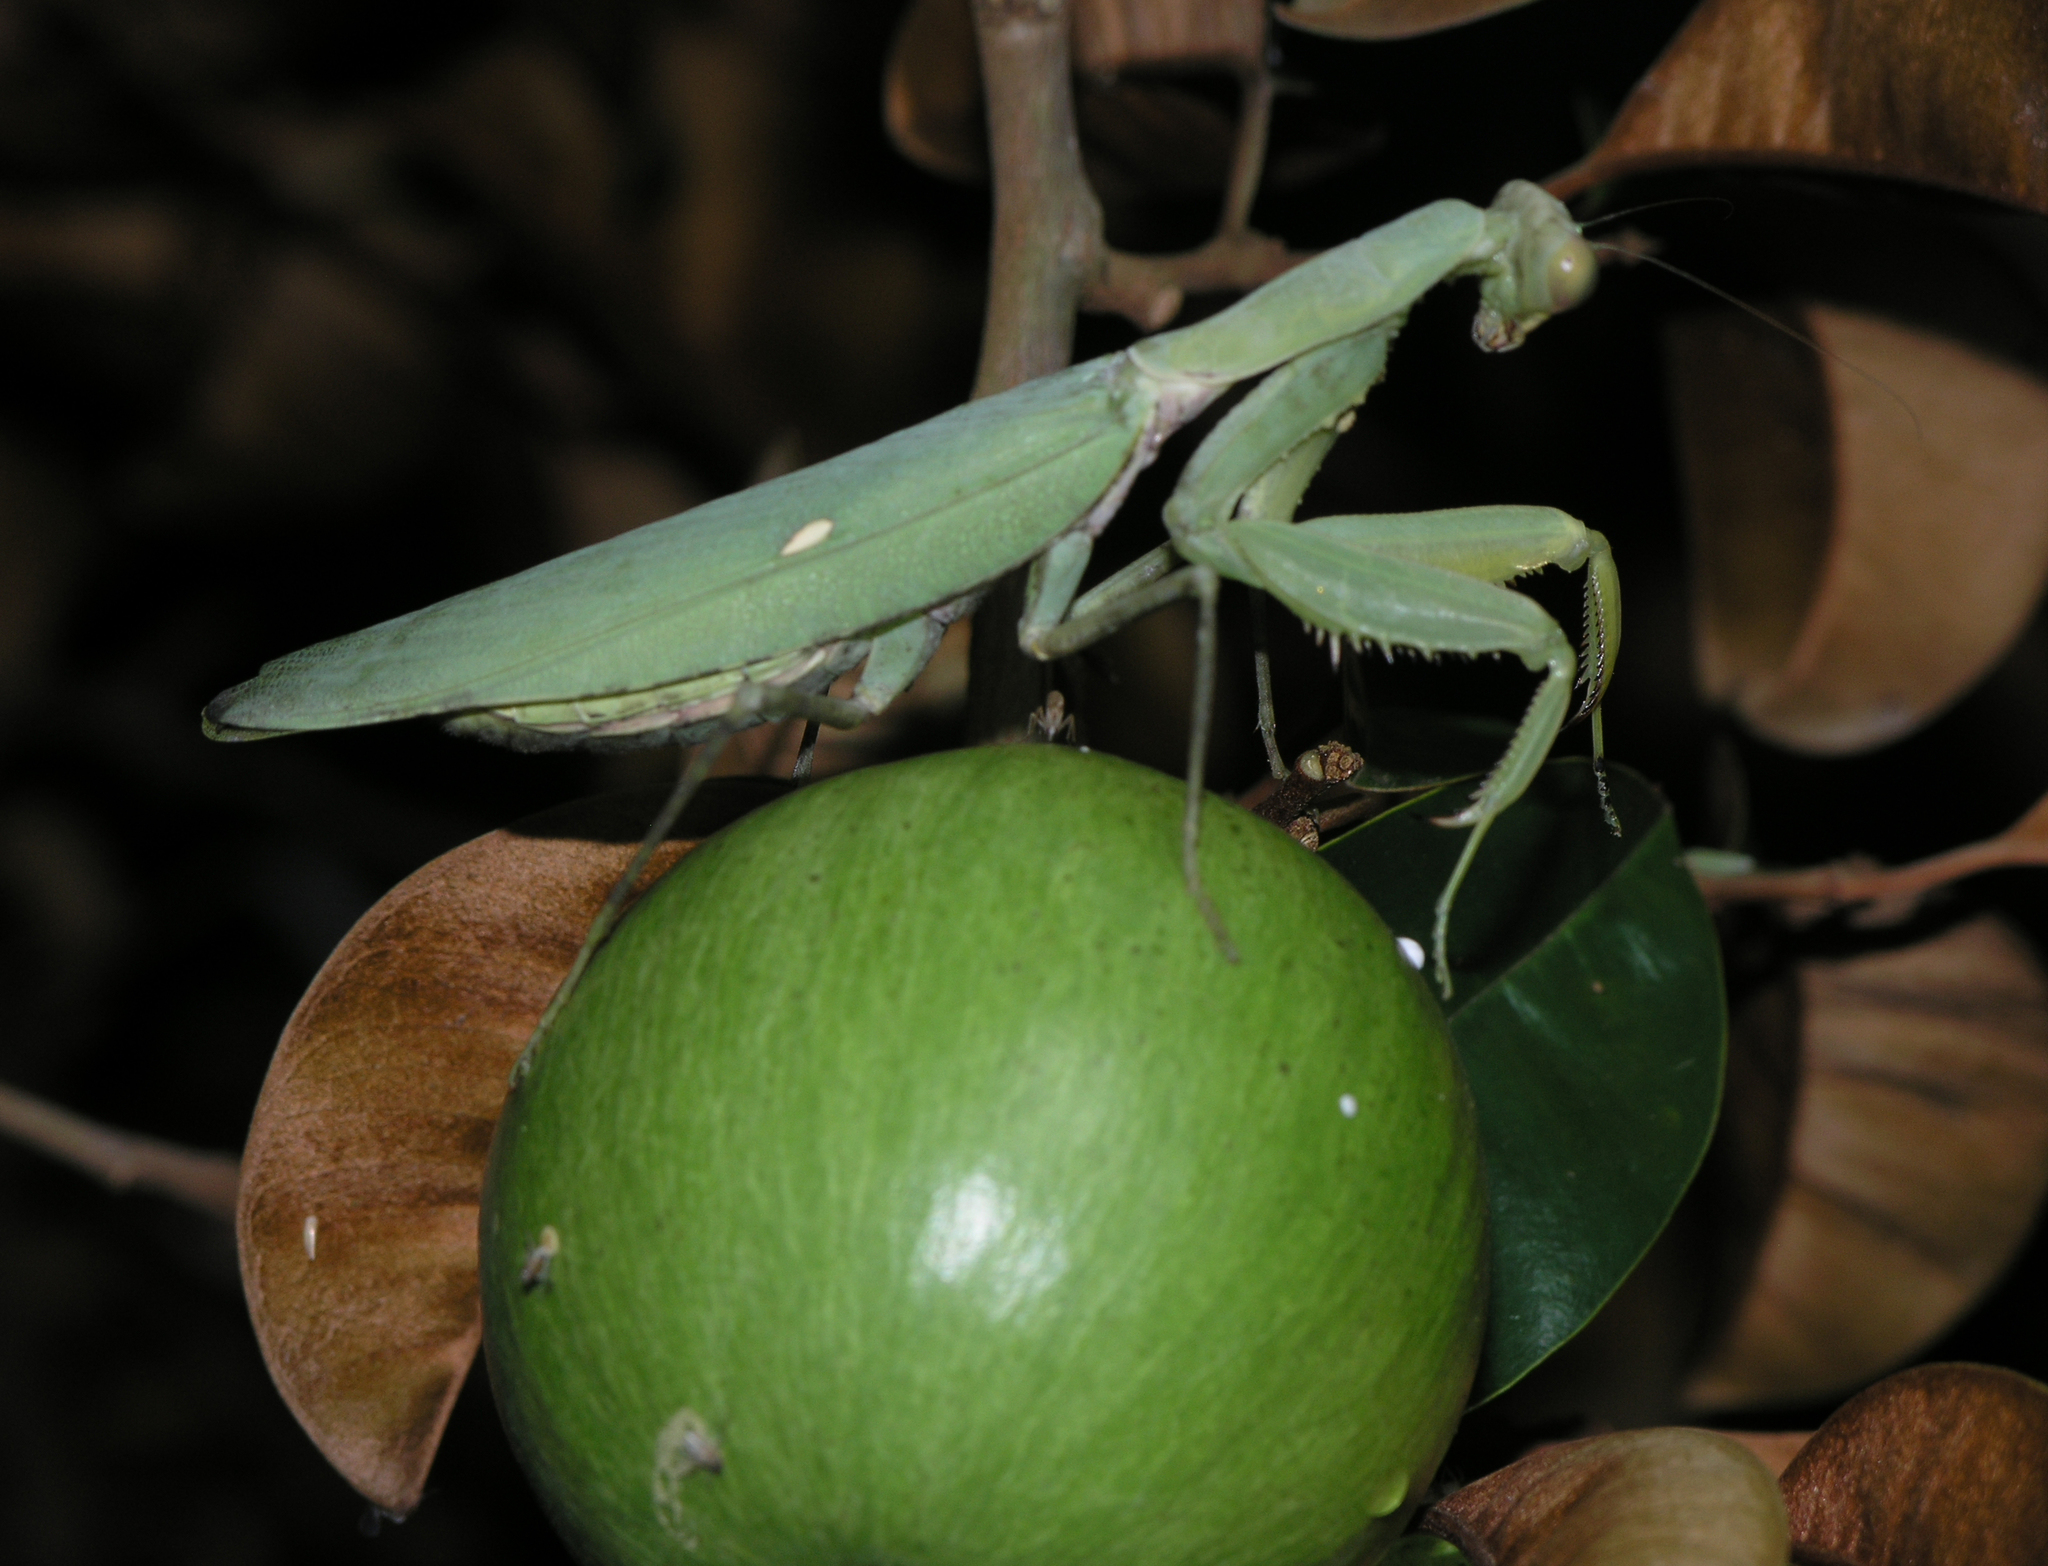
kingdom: Animalia
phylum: Arthropoda
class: Insecta
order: Mantodea
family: Mantidae
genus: Hierodula
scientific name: Hierodula patellifera
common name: Asian mantis
